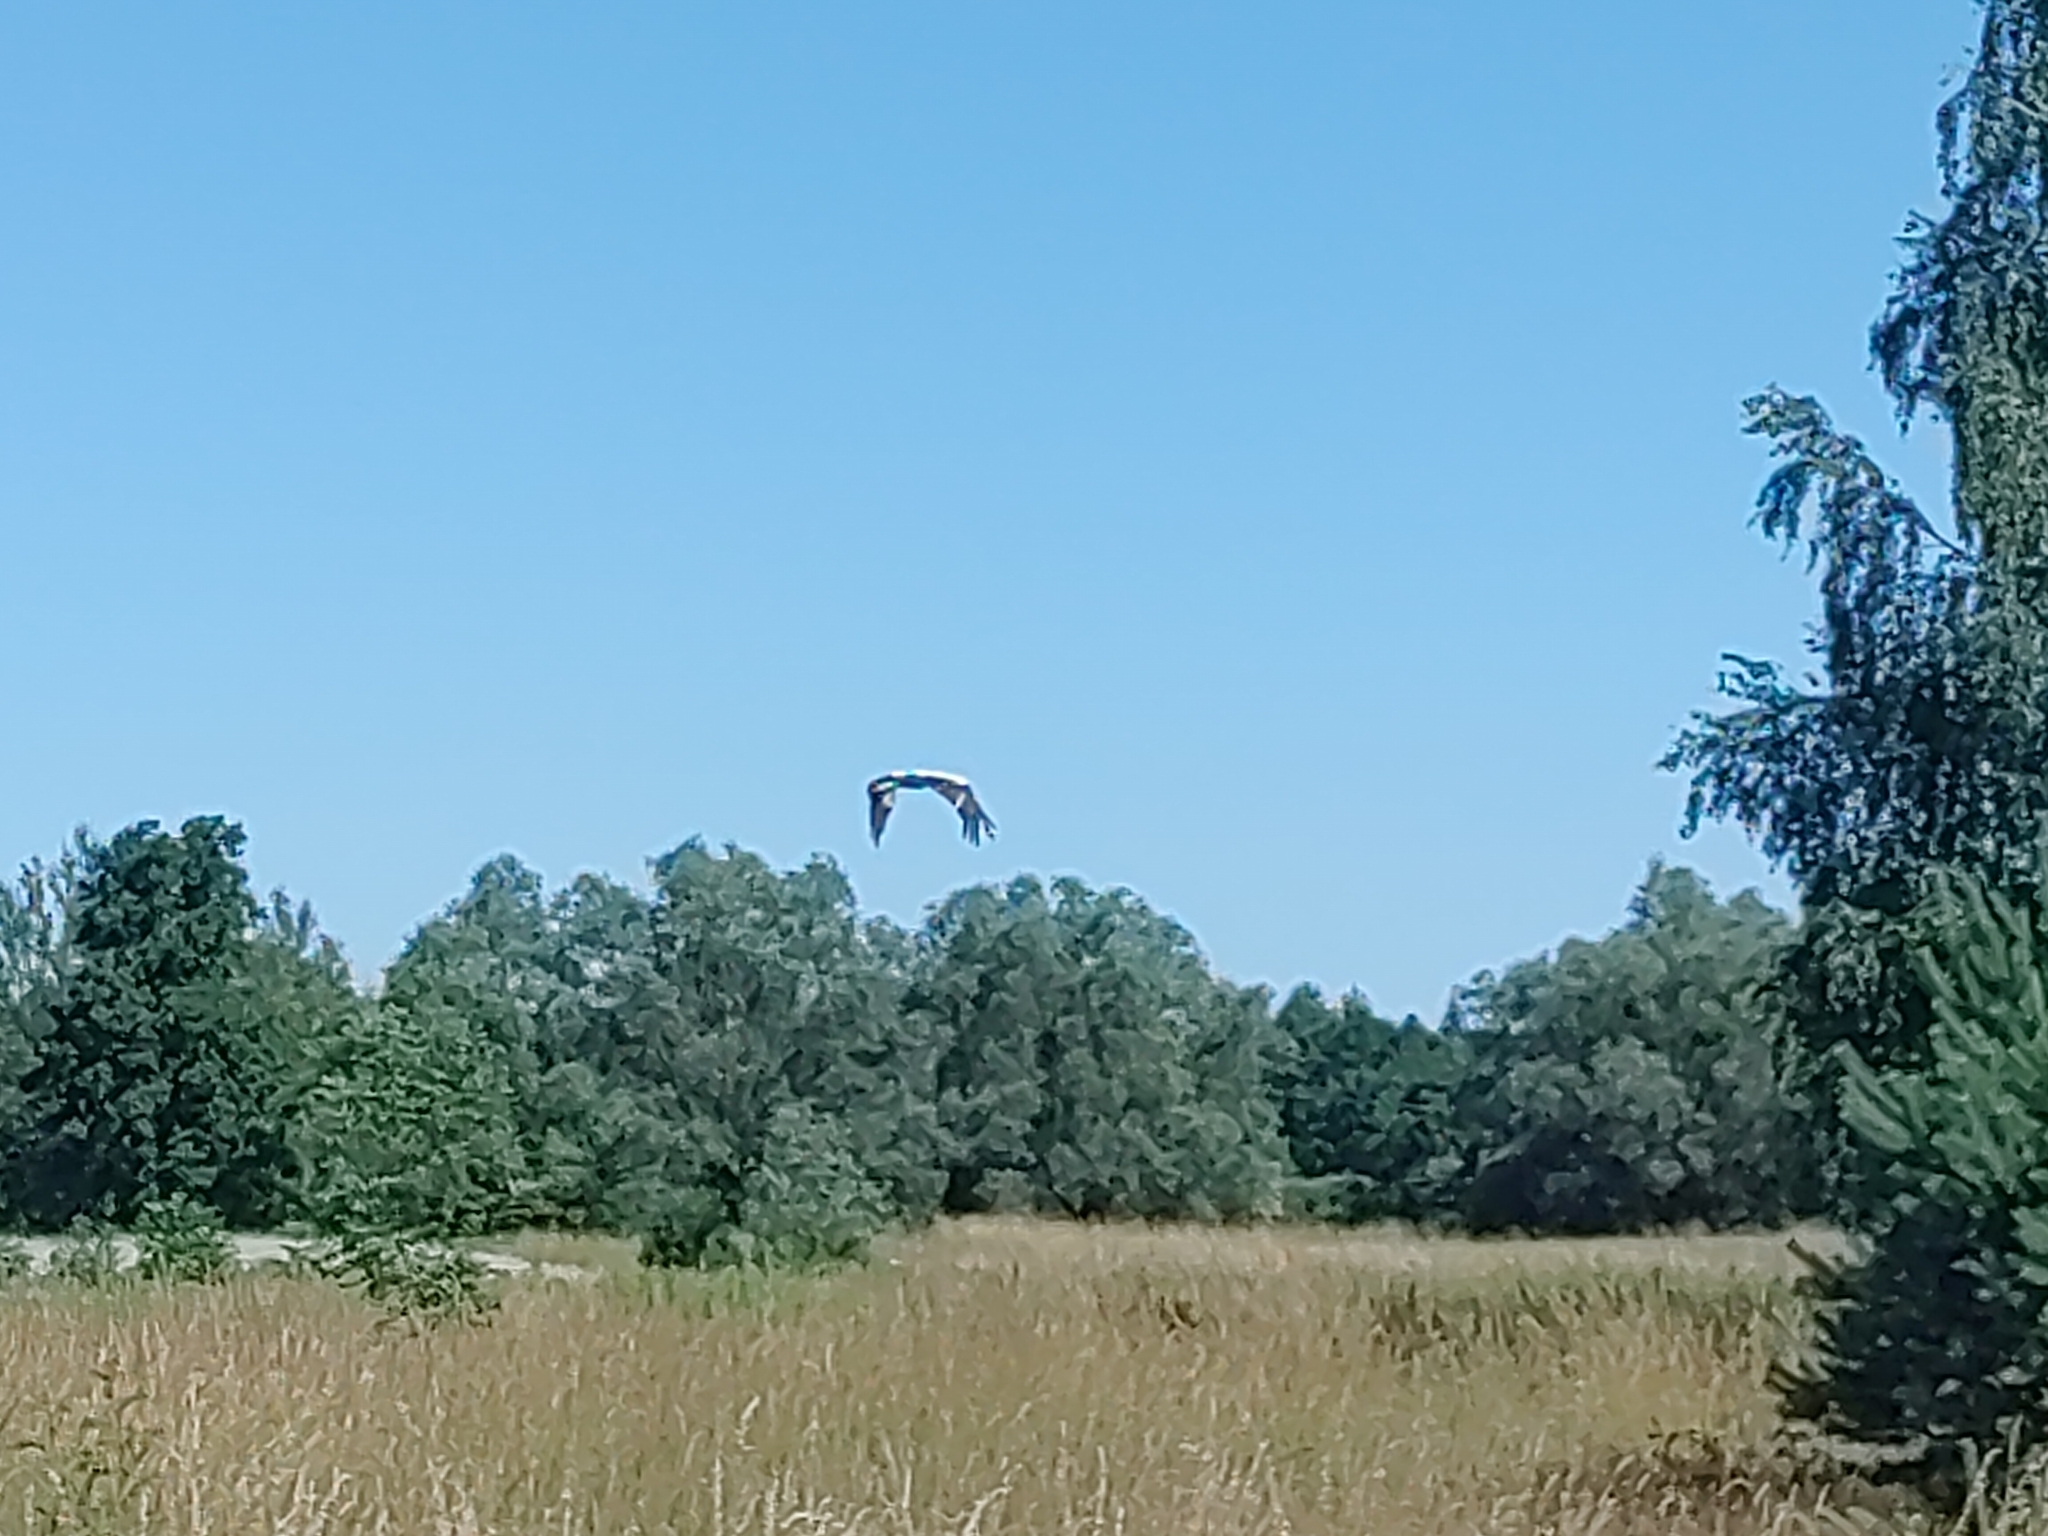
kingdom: Animalia
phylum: Chordata
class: Aves
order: Ciconiiformes
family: Ciconiidae
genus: Ciconia
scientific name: Ciconia ciconia
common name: White stork
